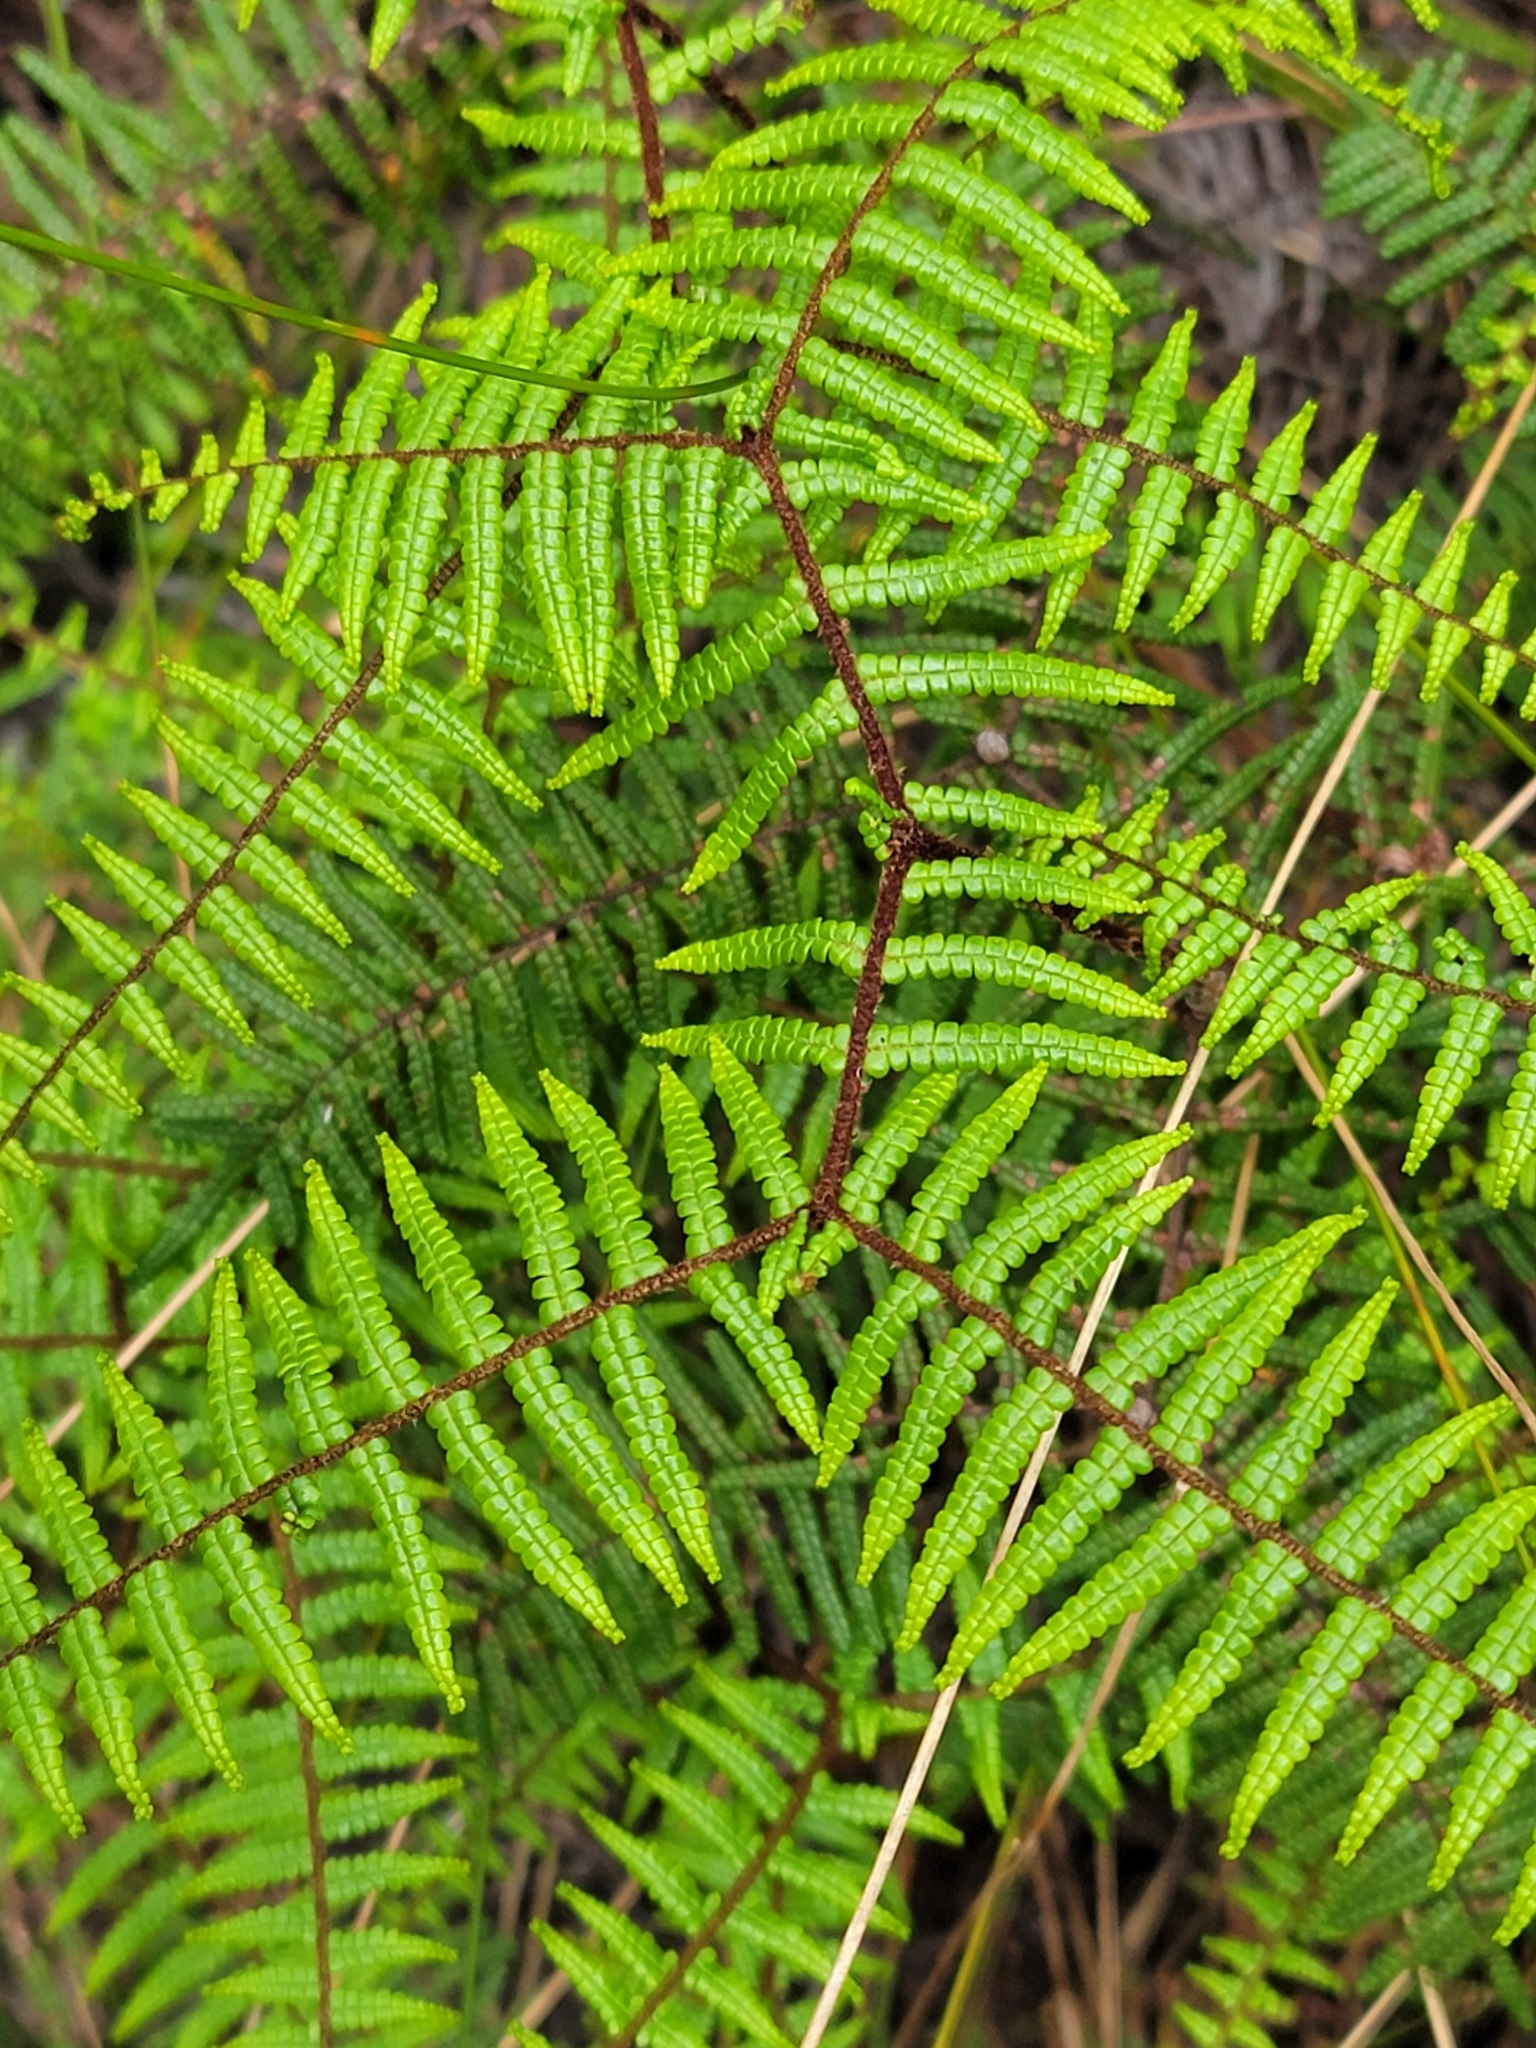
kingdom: Plantae
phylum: Tracheophyta
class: Polypodiopsida
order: Gleicheniales
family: Gleicheniaceae
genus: Gleichenia
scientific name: Gleichenia microphylla
